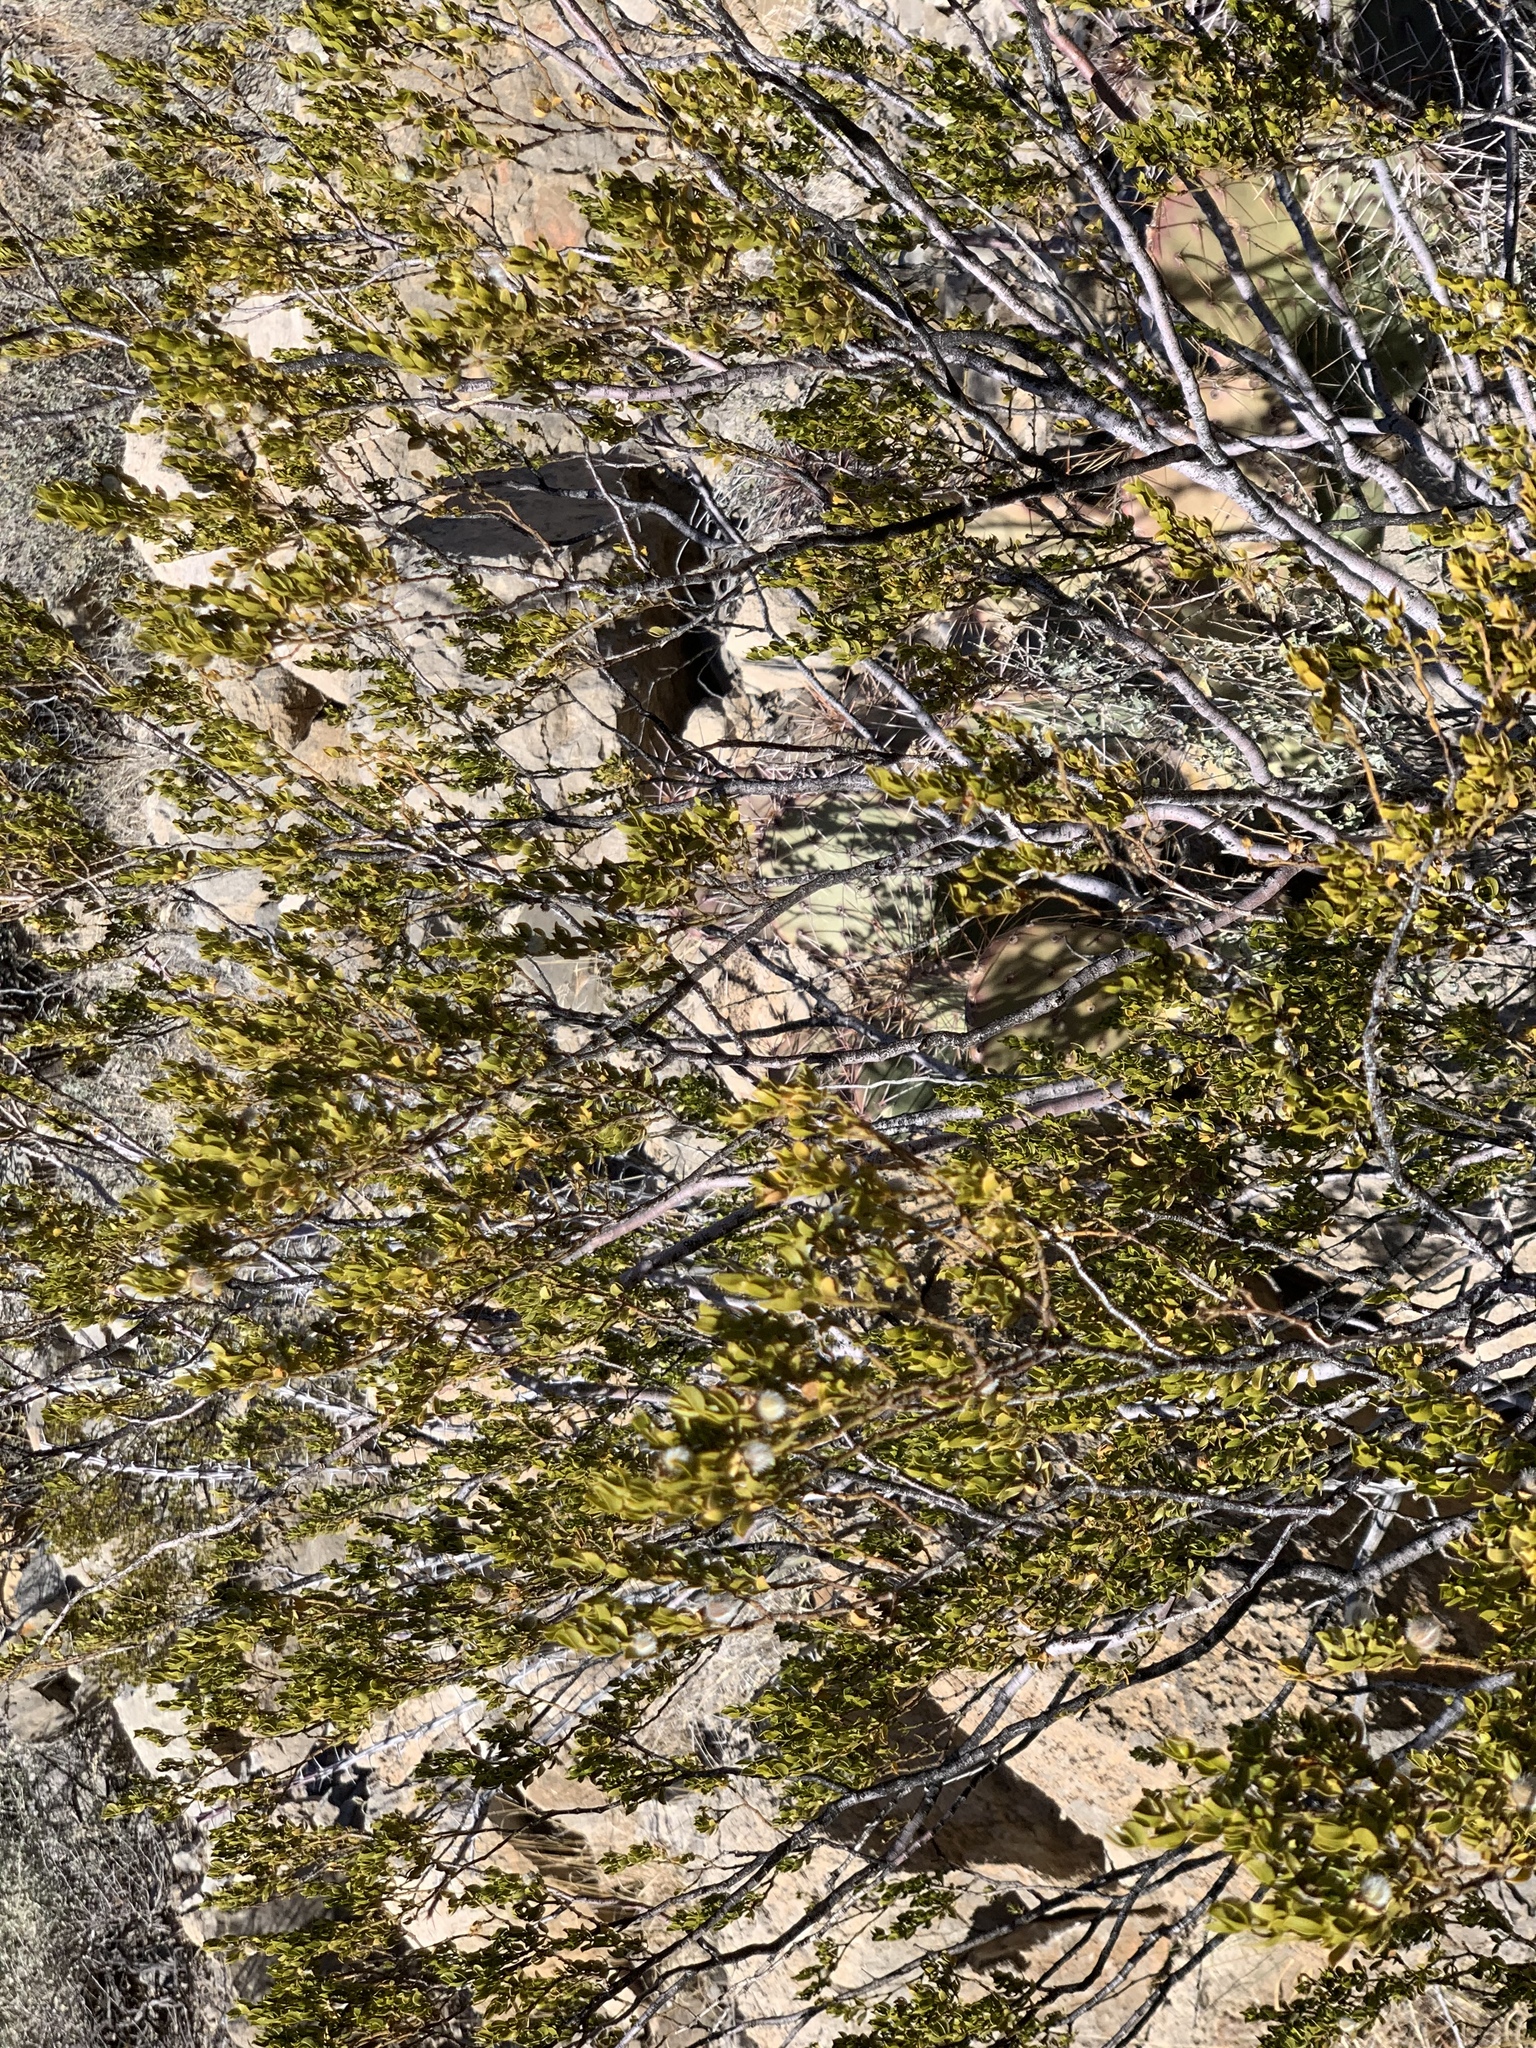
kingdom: Plantae
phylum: Tracheophyta
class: Magnoliopsida
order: Zygophyllales
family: Zygophyllaceae
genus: Larrea
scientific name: Larrea tridentata
